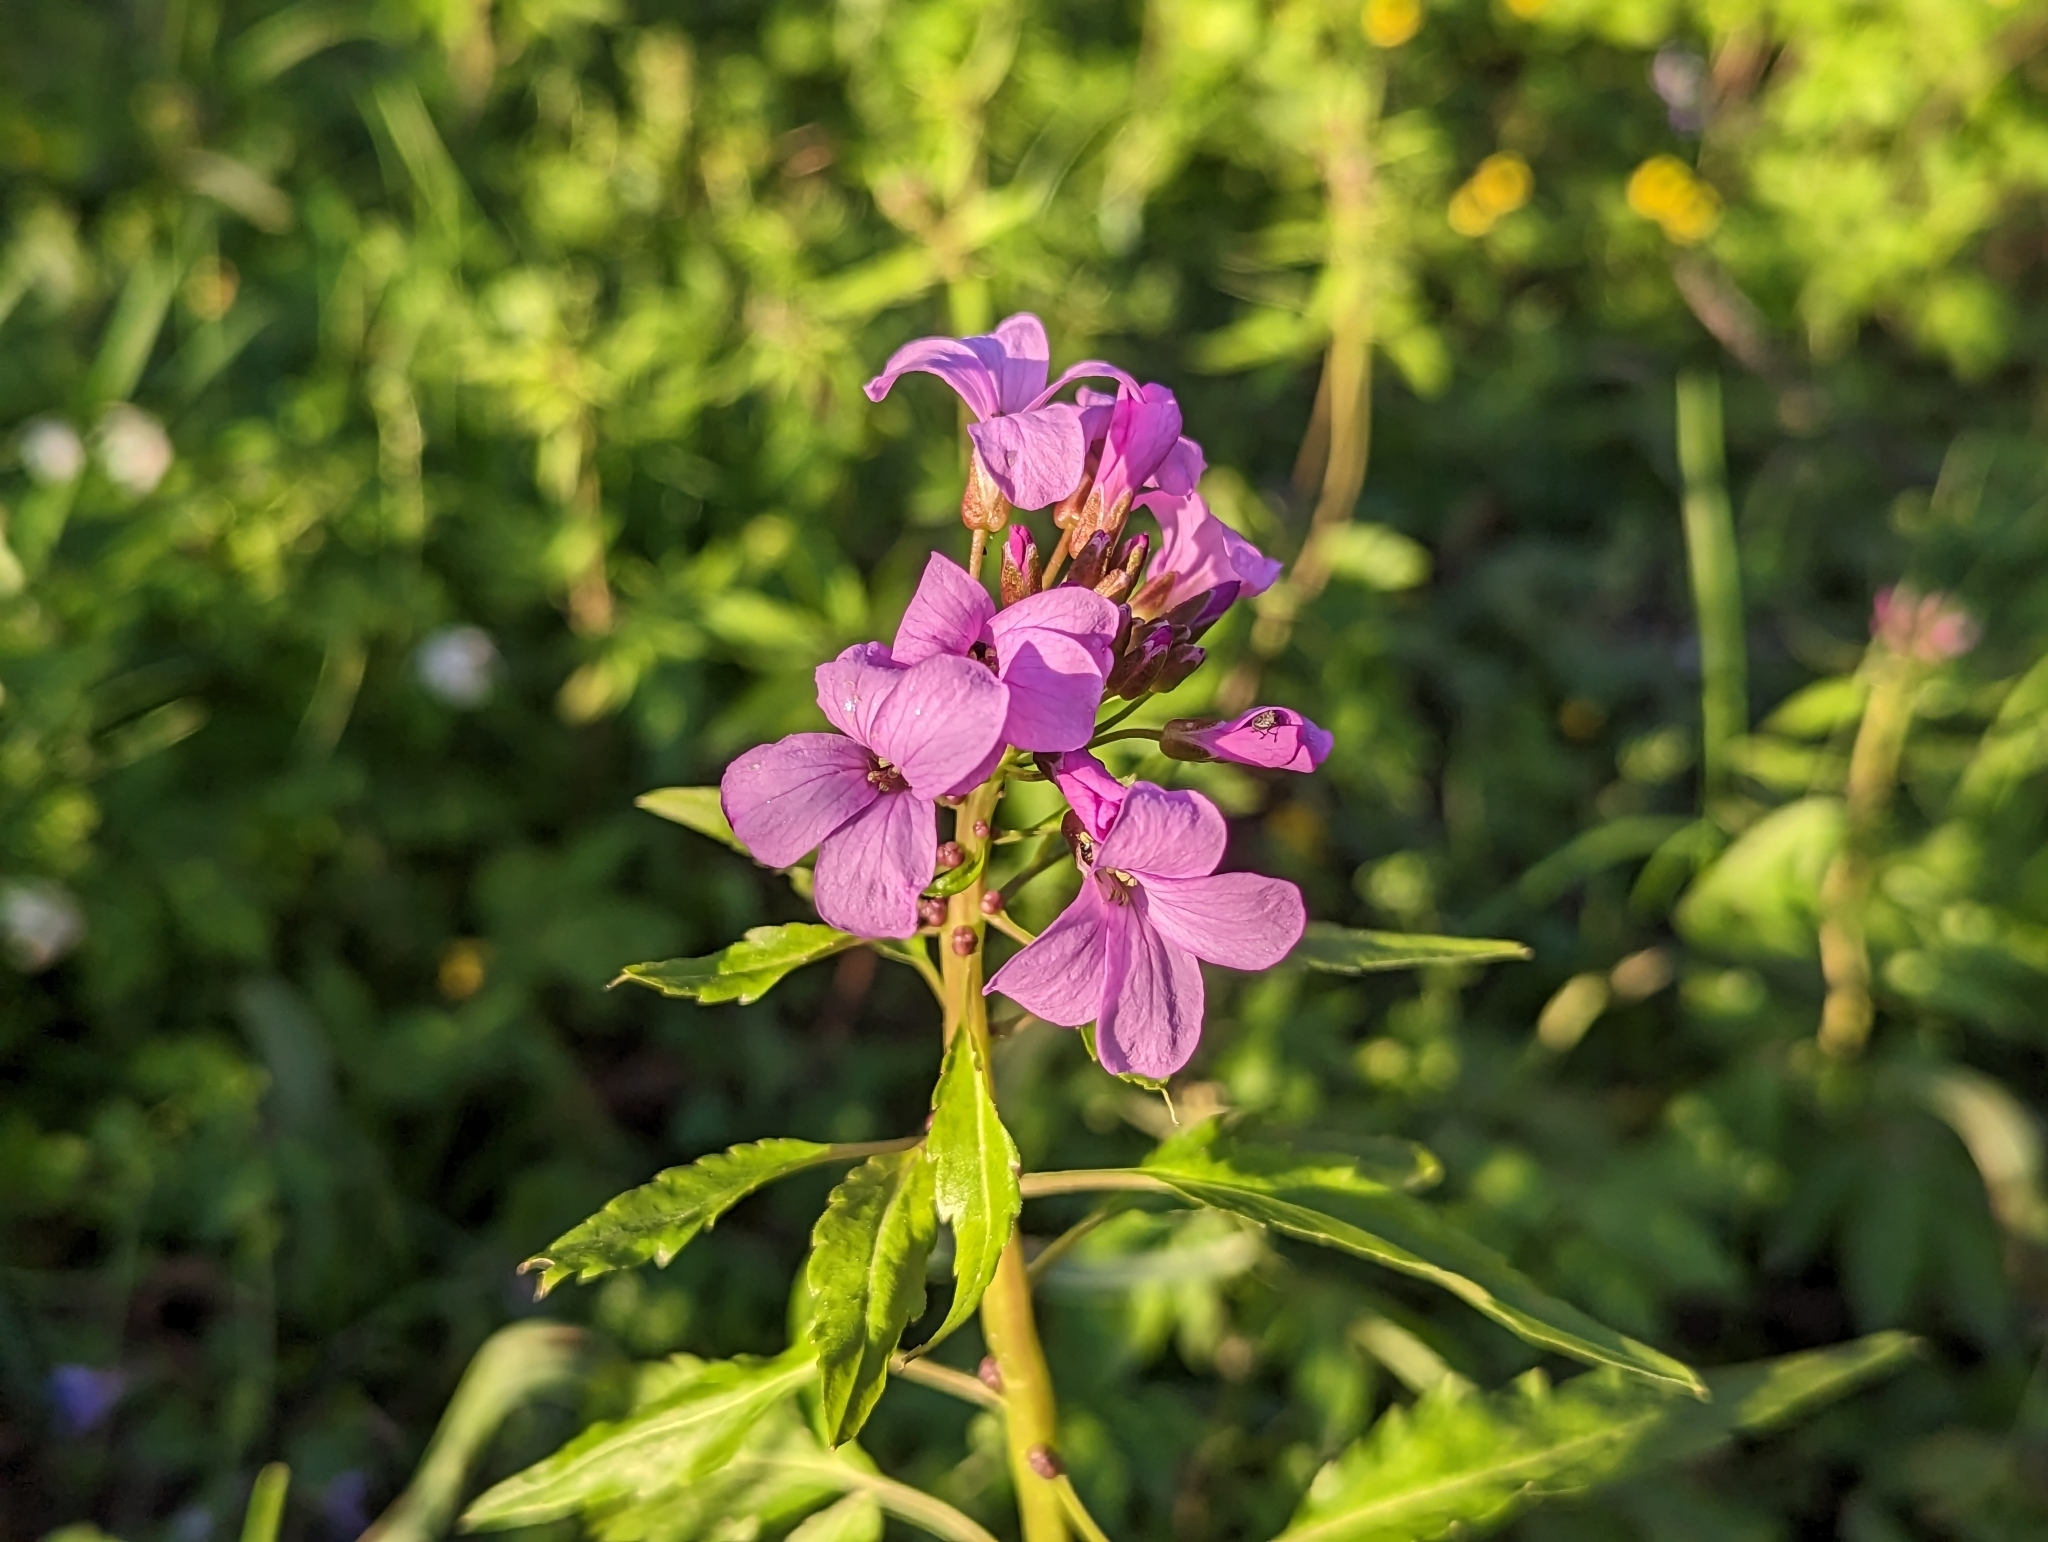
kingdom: Plantae
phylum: Tracheophyta
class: Magnoliopsida
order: Brassicales
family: Brassicaceae
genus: Cardamine
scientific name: Cardamine bulbifera
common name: Coralroot bittercress
